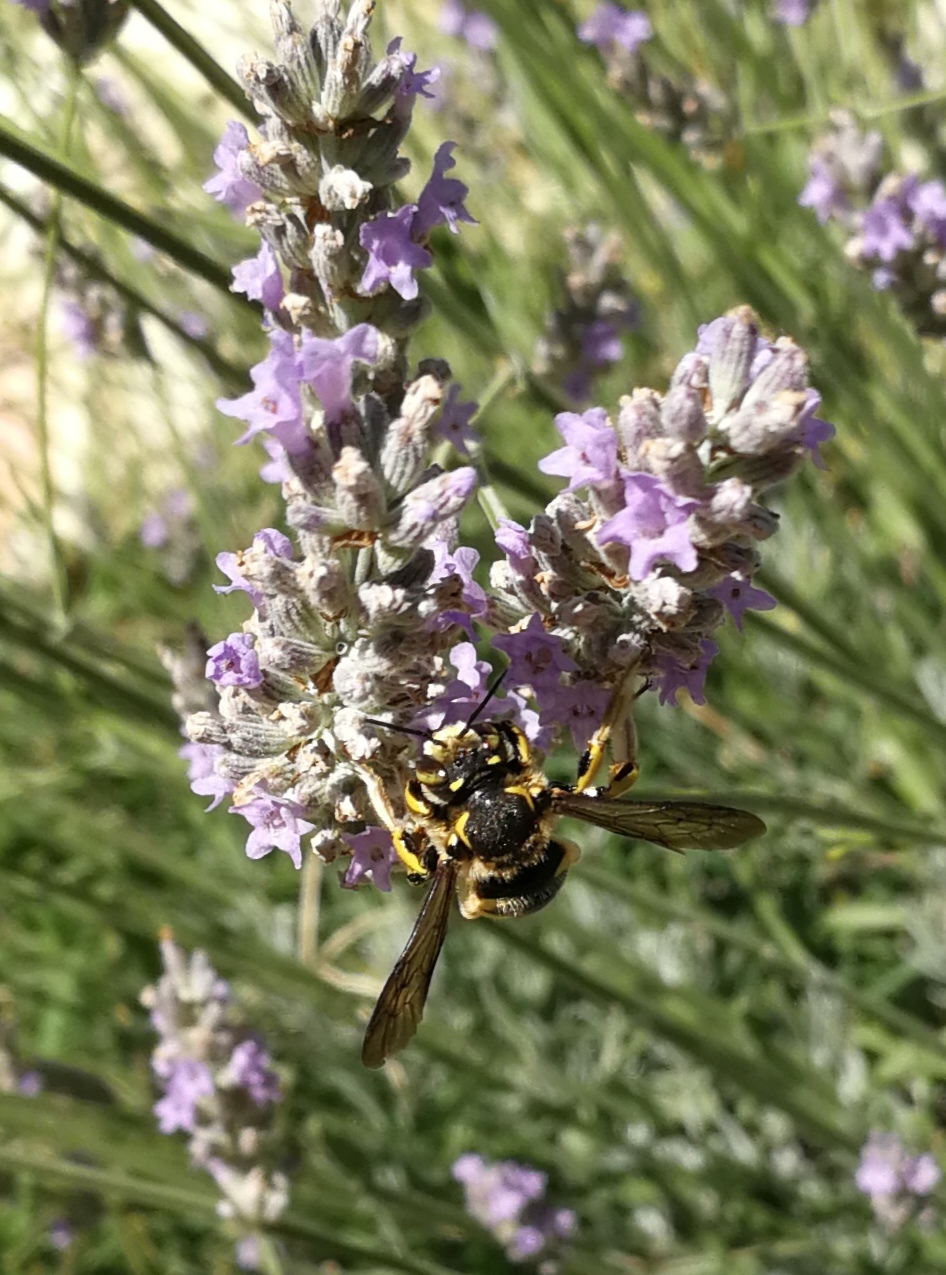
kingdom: Animalia
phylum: Arthropoda
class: Insecta
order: Hymenoptera
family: Megachilidae
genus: Anthidium
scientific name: Anthidium florentinum
